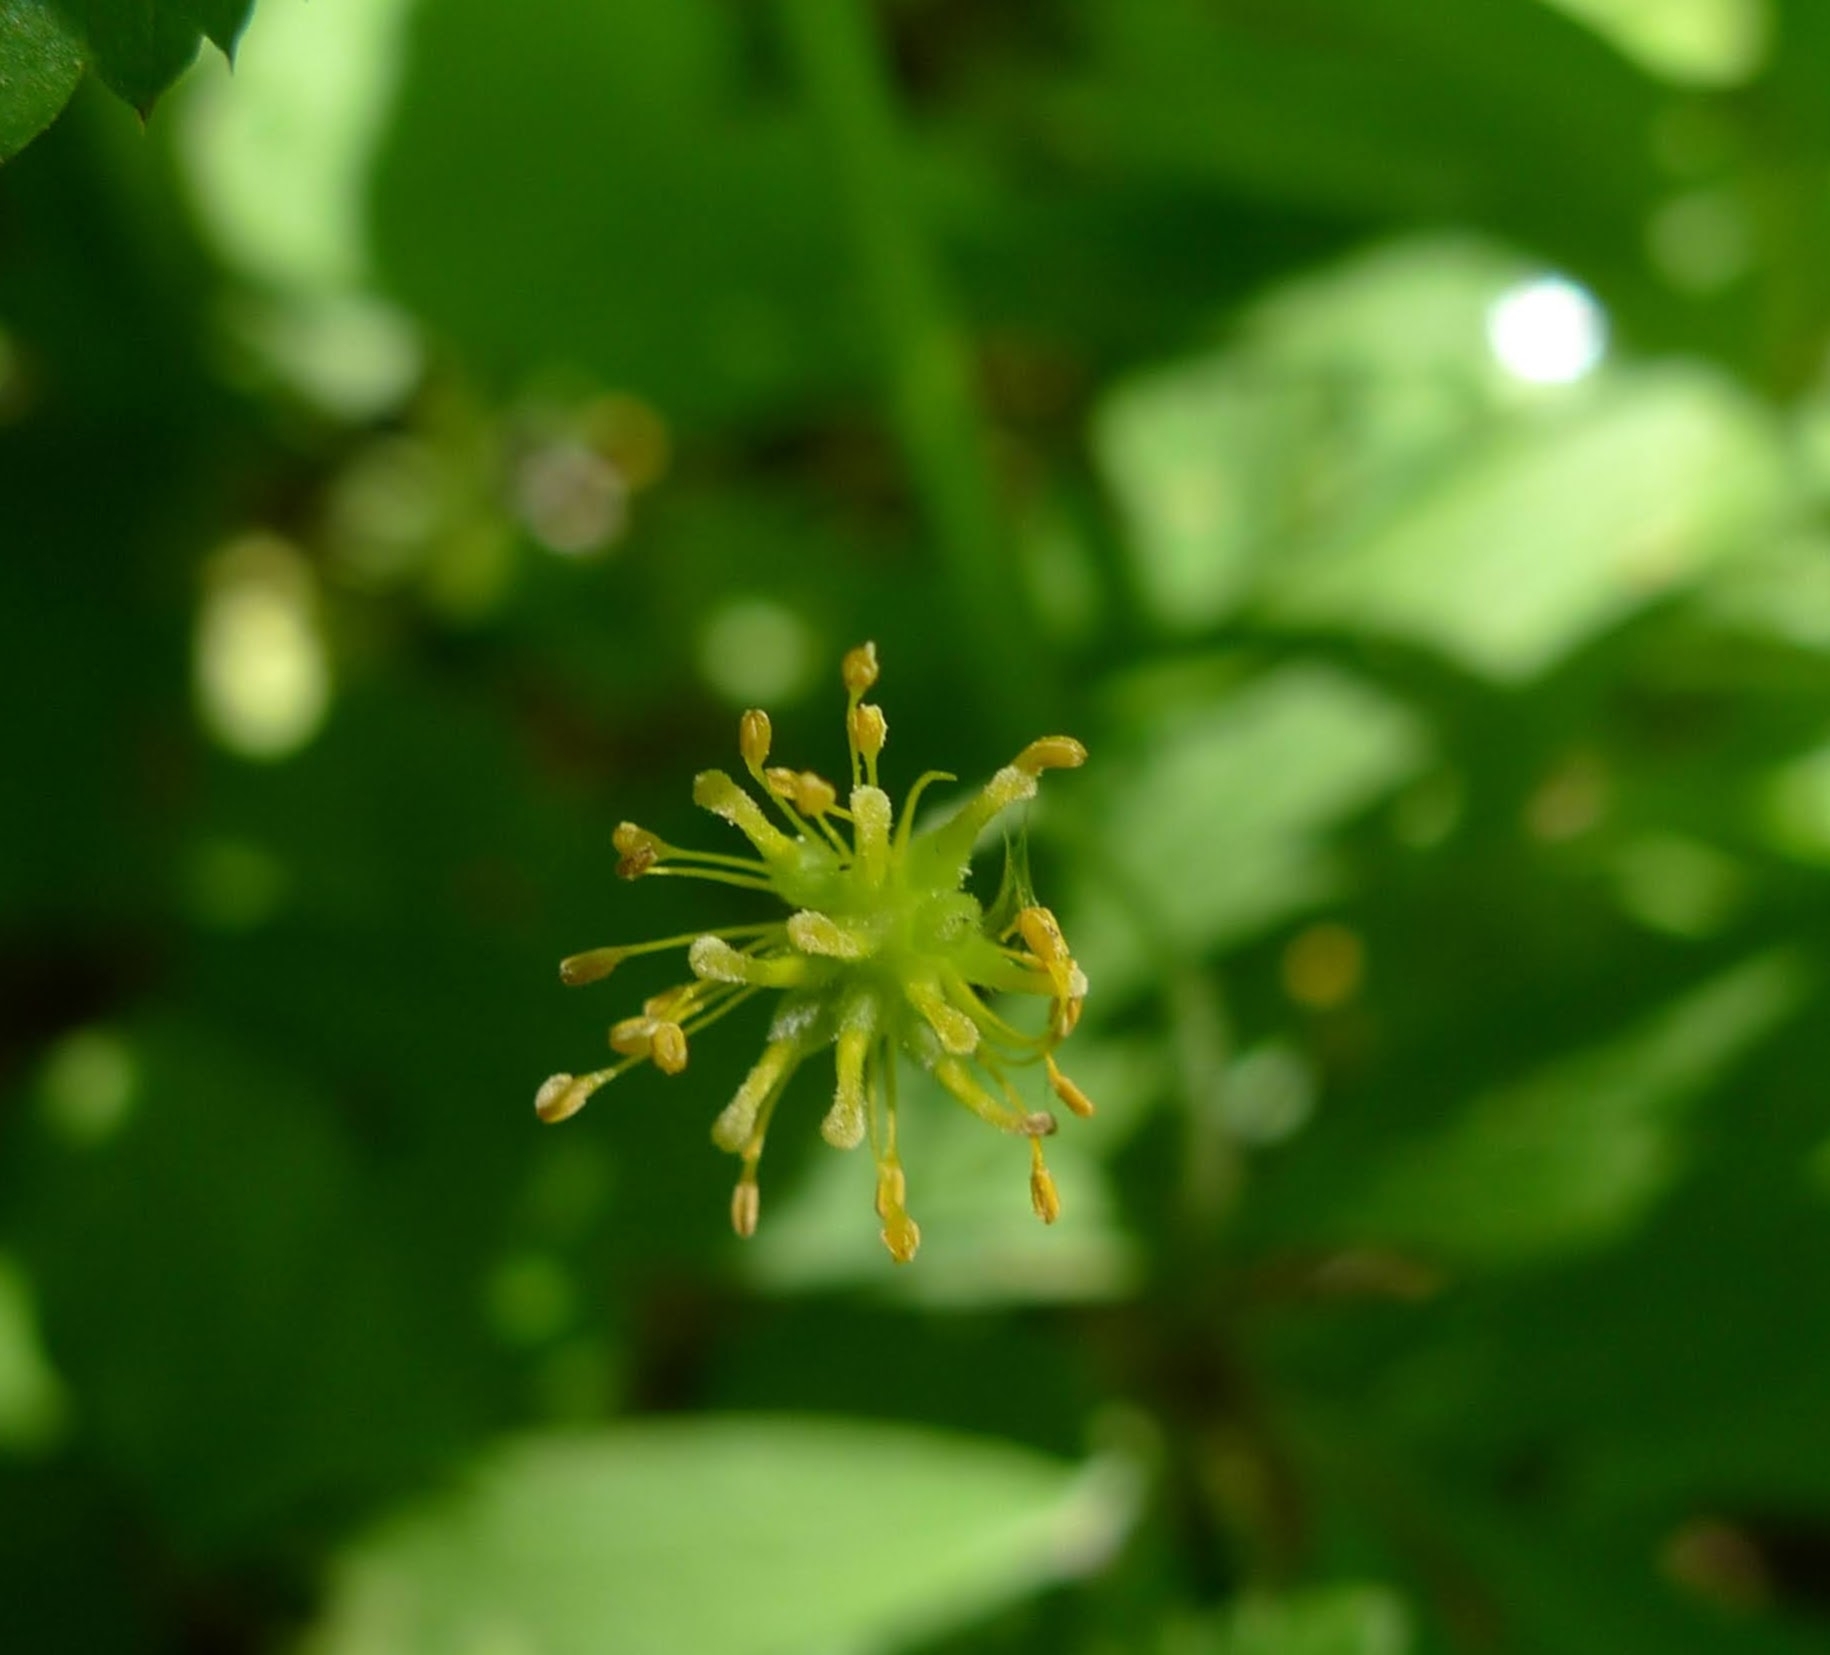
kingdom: Plantae
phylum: Tracheophyta
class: Magnoliopsida
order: Ranunculales
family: Ranunculaceae
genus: Anemone
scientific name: Anemone ranunculoides
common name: Yellow anemone
